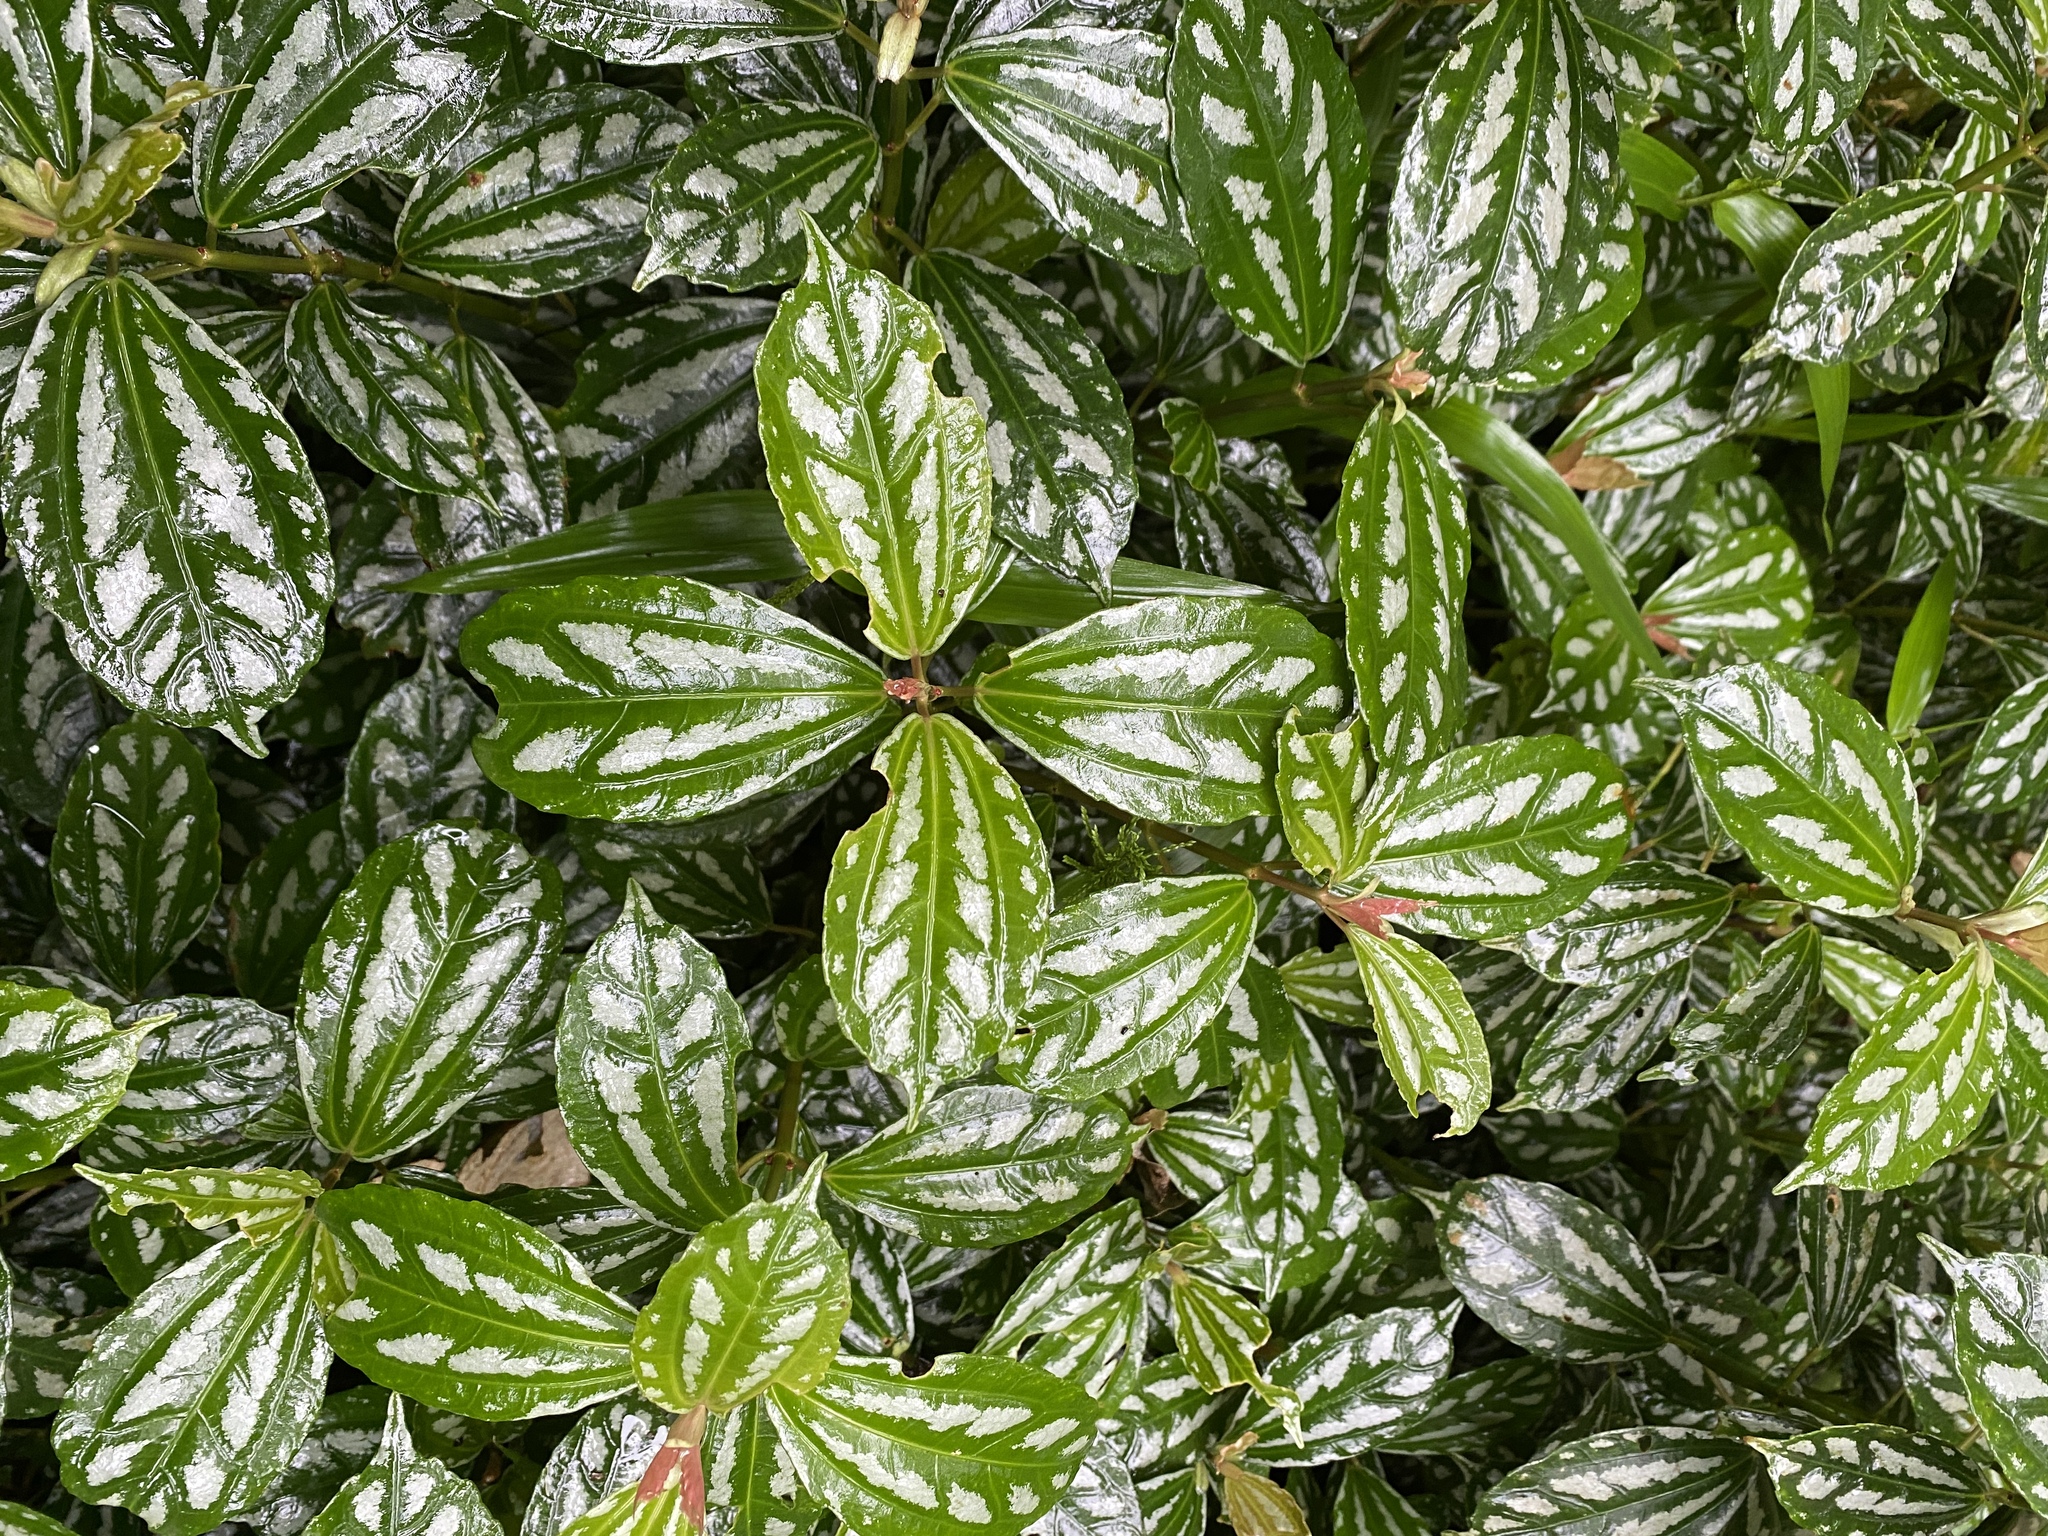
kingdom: Plantae
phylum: Tracheophyta
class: Magnoliopsida
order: Rosales
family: Urticaceae
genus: Pilea
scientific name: Pilea cadierei
